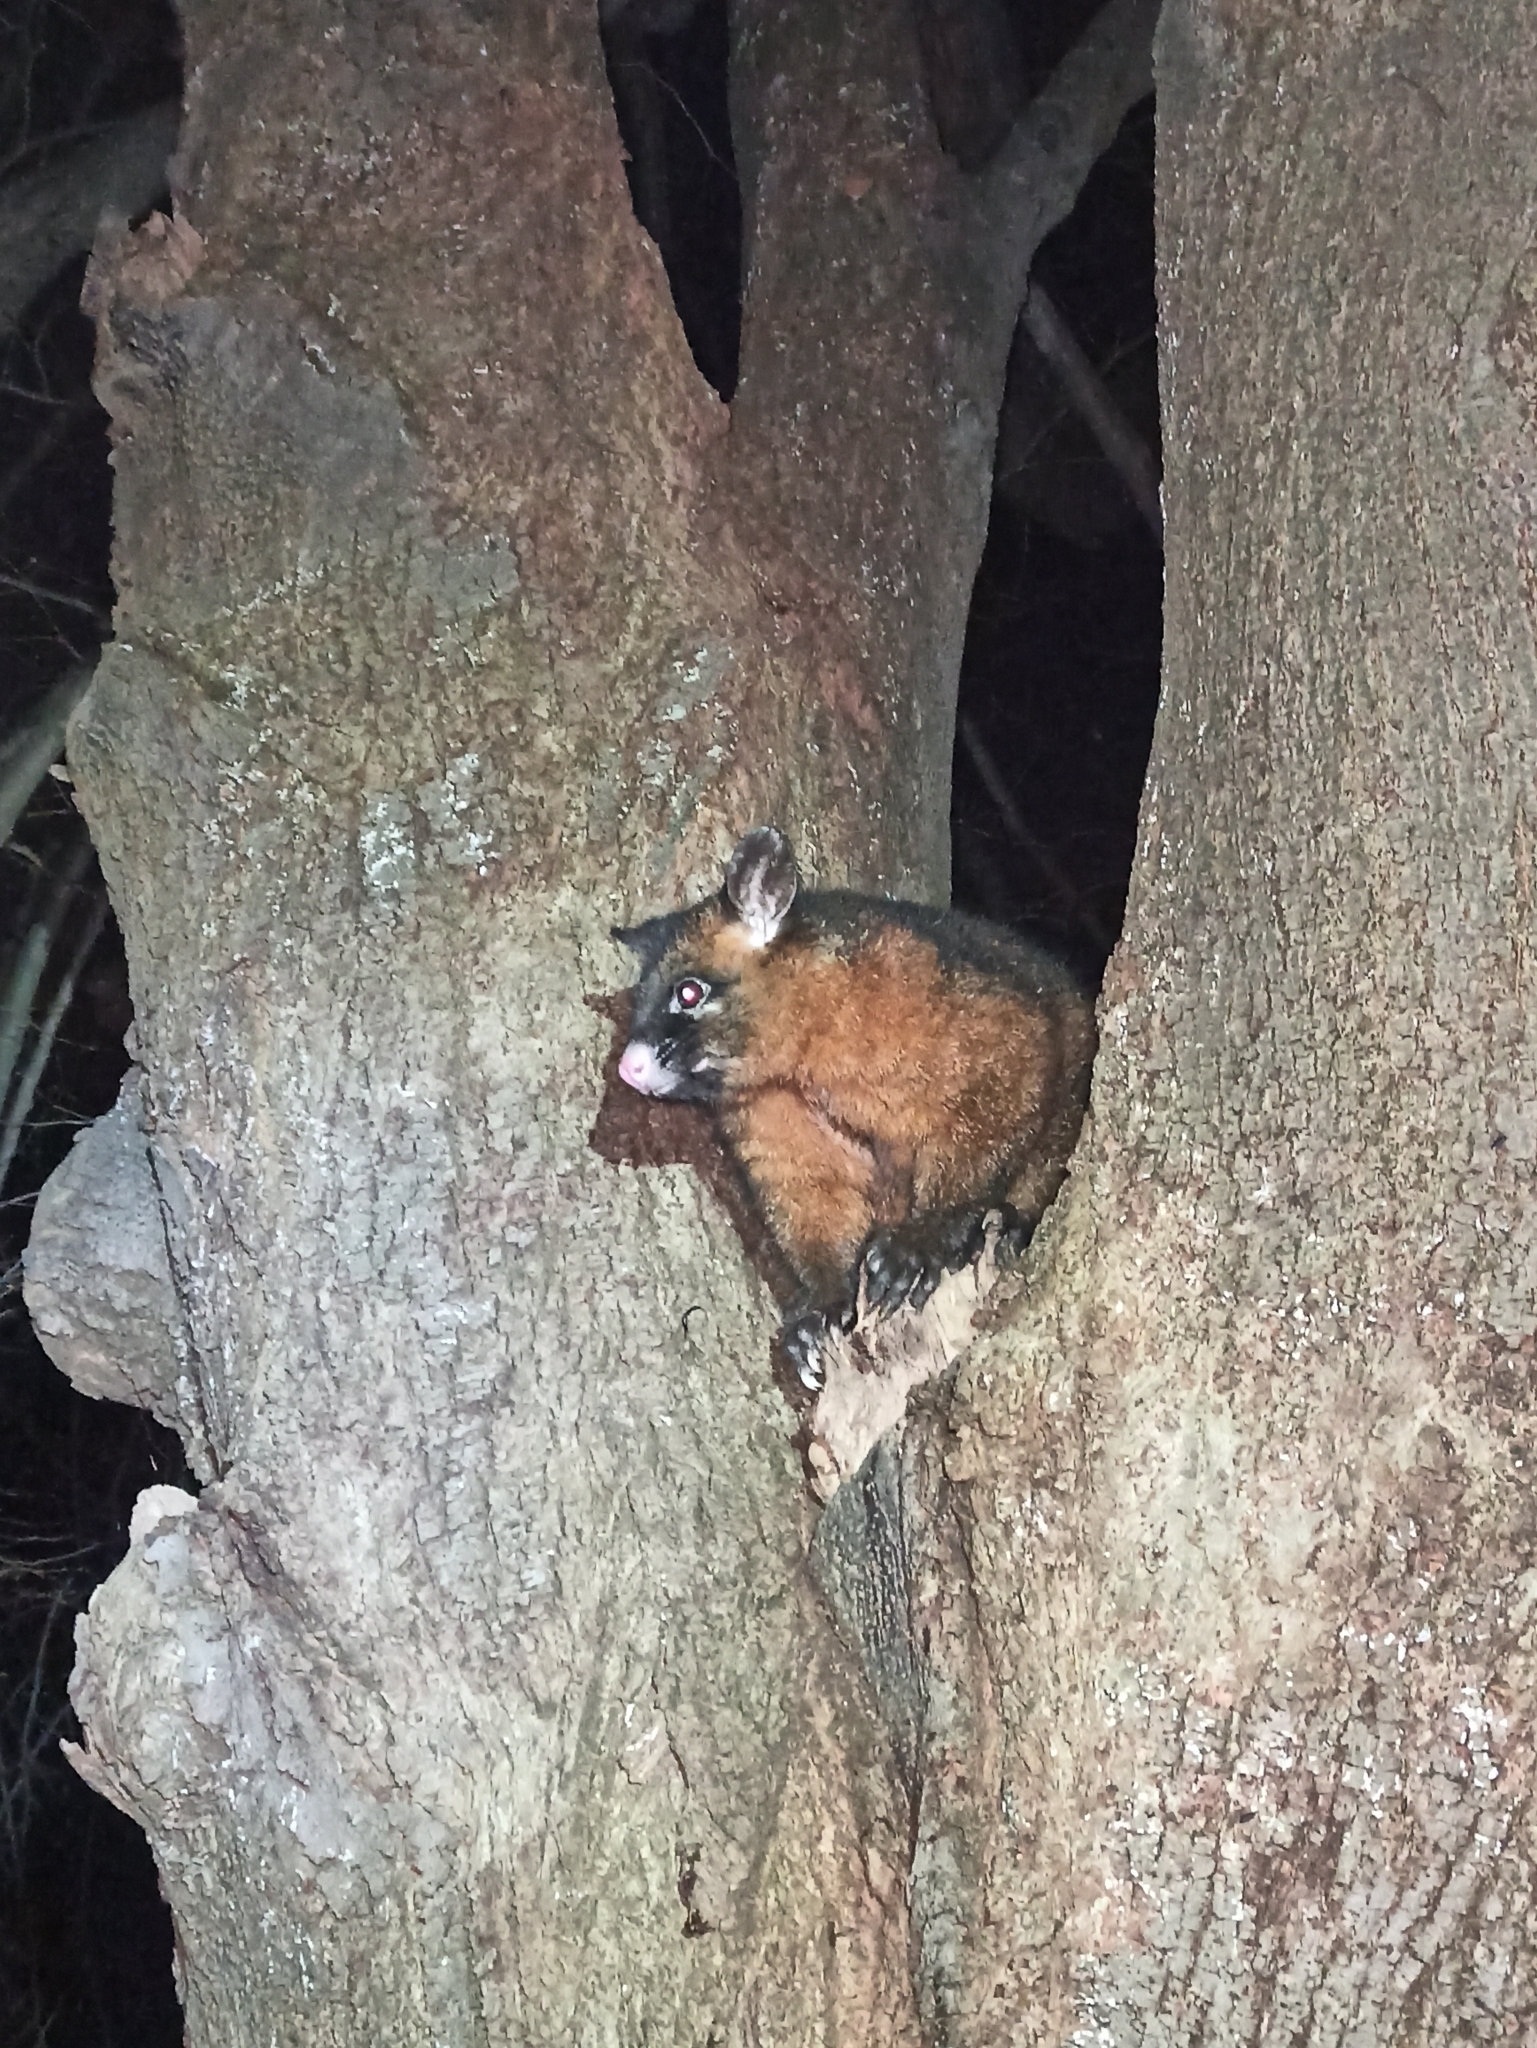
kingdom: Animalia
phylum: Chordata
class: Mammalia
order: Diprotodontia
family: Phalangeridae
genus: Trichosurus
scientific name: Trichosurus vulpecula
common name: Common brushtail
